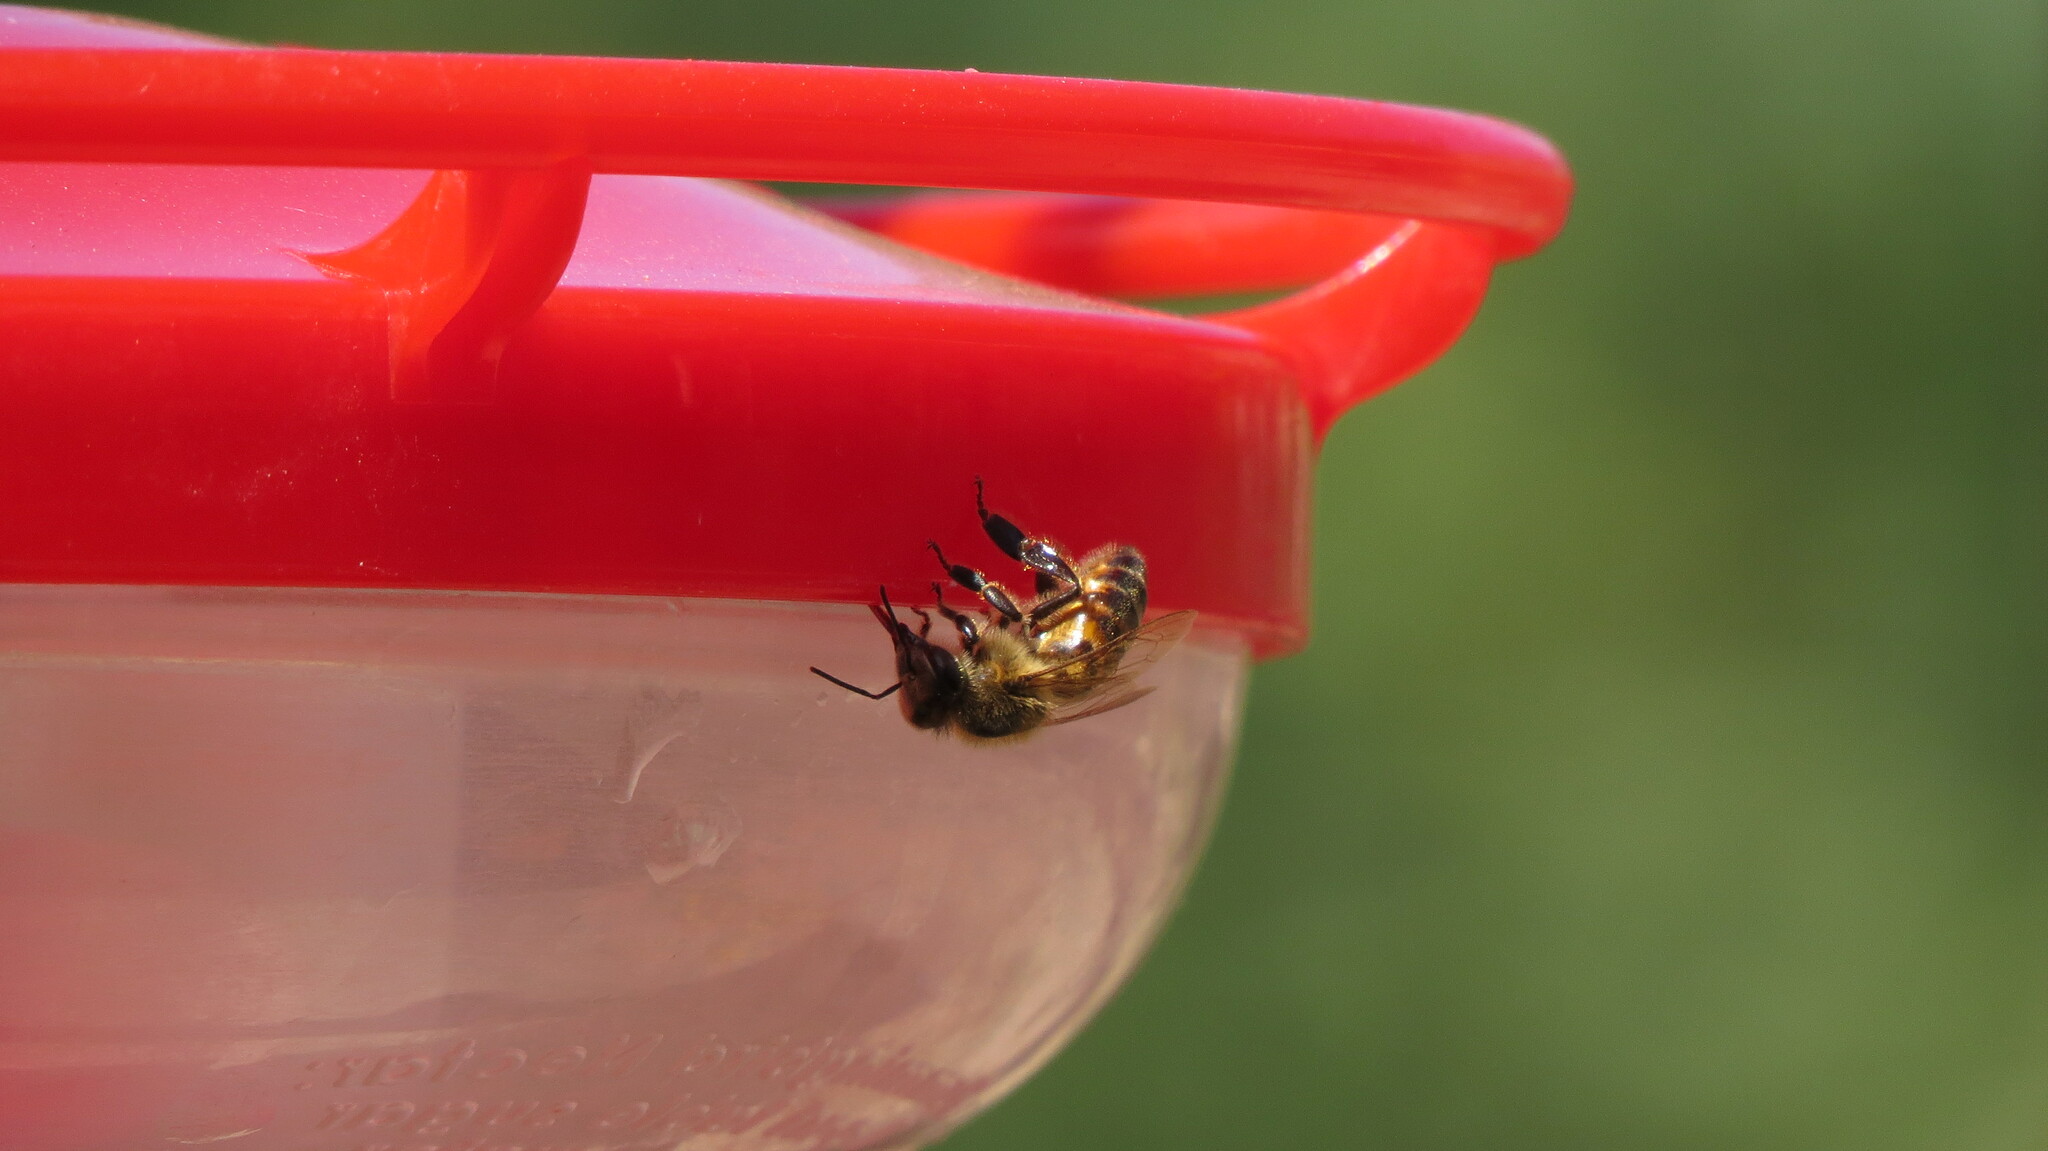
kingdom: Animalia
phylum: Arthropoda
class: Insecta
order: Hymenoptera
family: Apidae
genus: Apis
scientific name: Apis mellifera
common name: Honey bee
